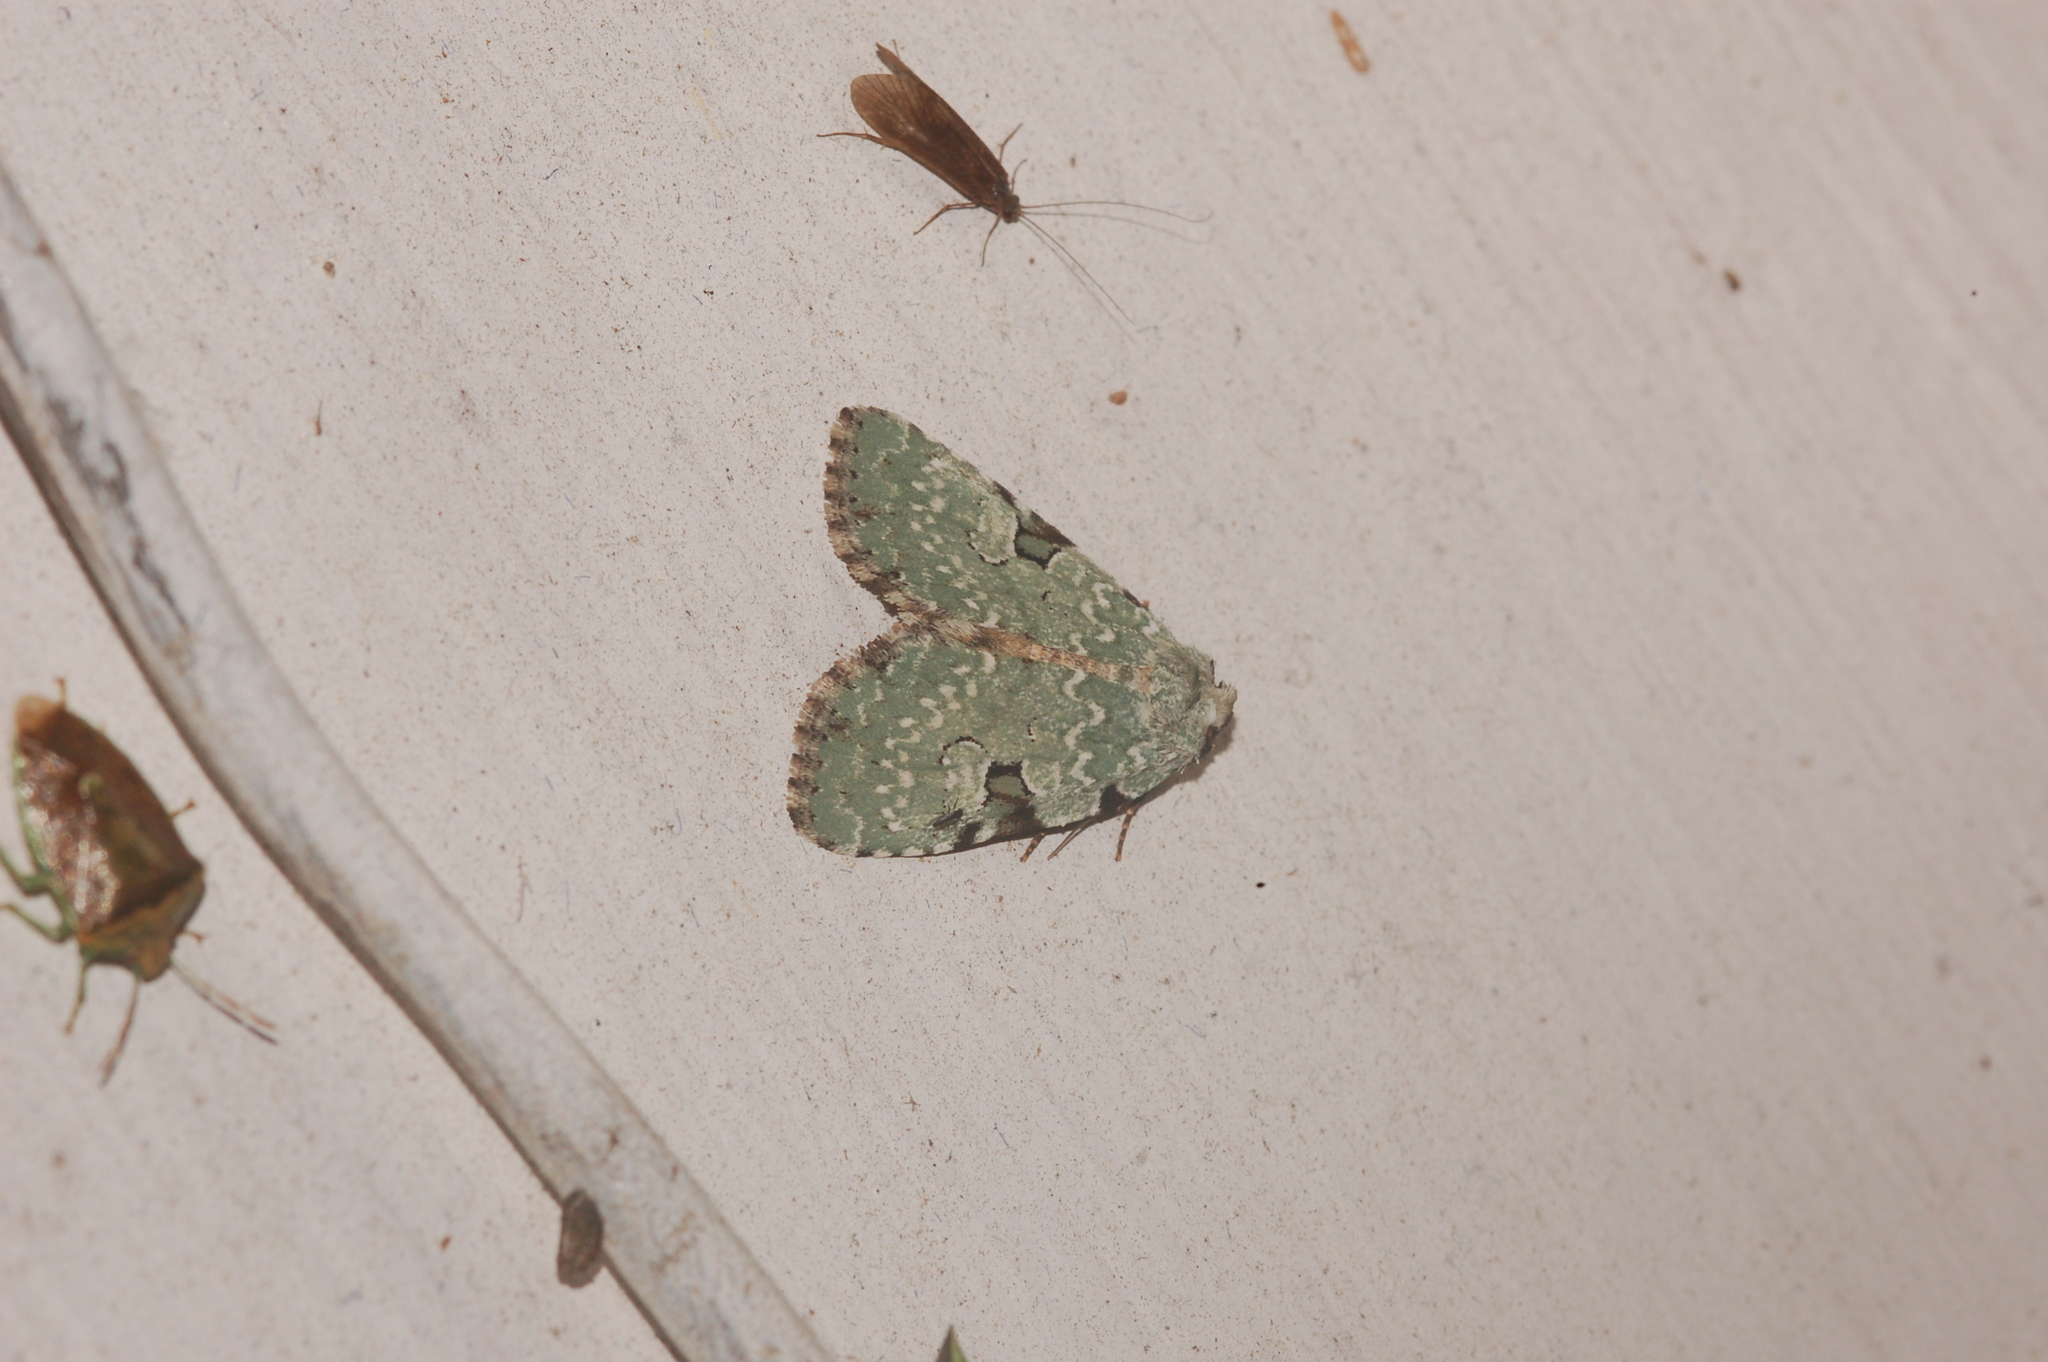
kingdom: Animalia
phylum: Arthropoda
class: Insecta
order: Lepidoptera
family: Noctuidae
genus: Leuconycta
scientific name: Leuconycta diphteroides
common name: Green leuconycta moth
